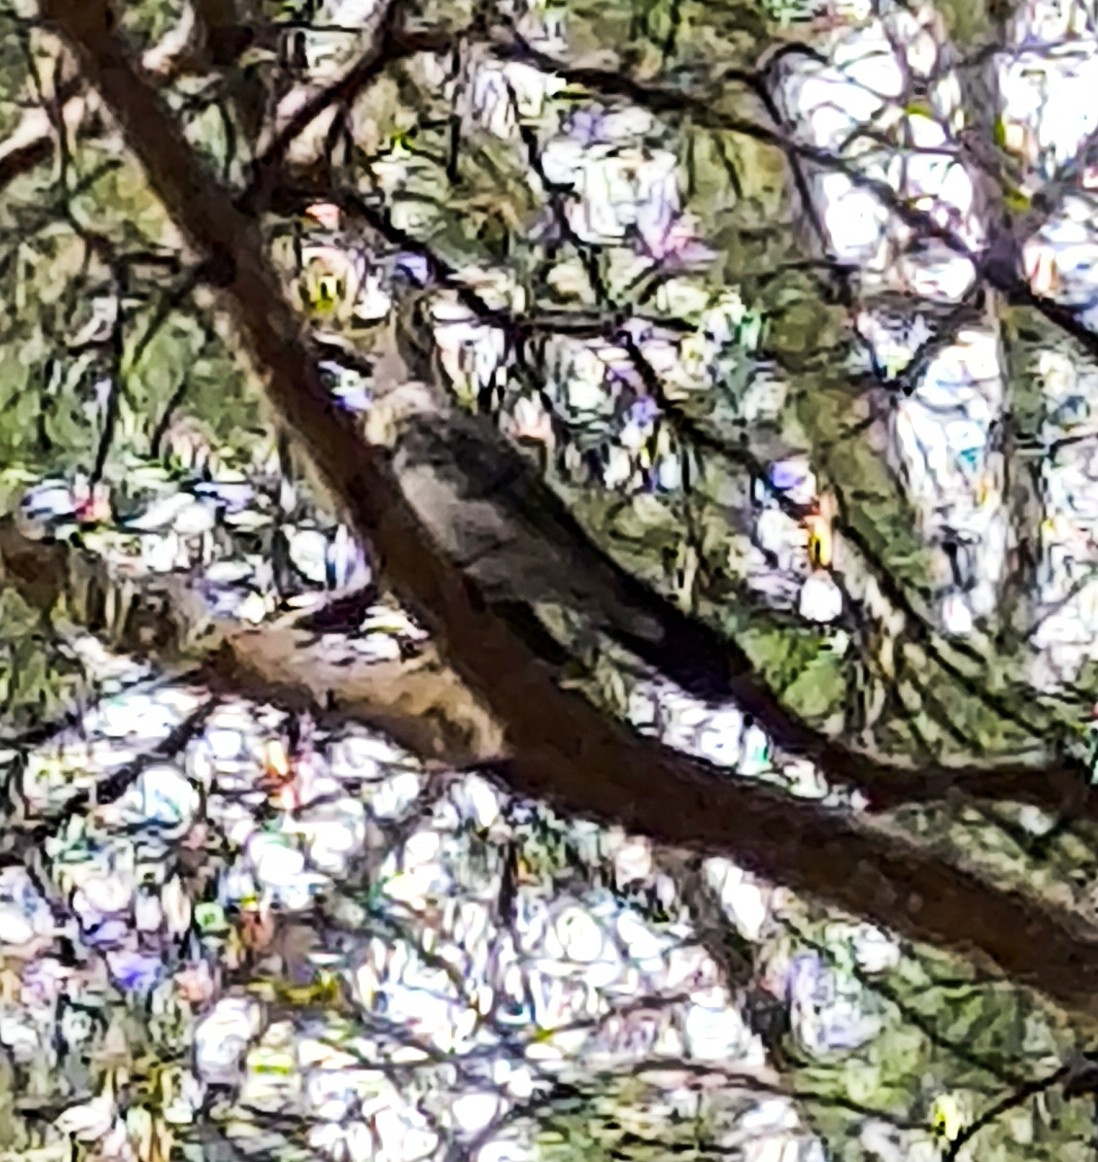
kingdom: Animalia
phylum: Chordata
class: Aves
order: Passeriformes
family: Turdidae
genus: Turdus
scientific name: Turdus pilaris
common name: Fieldfare
